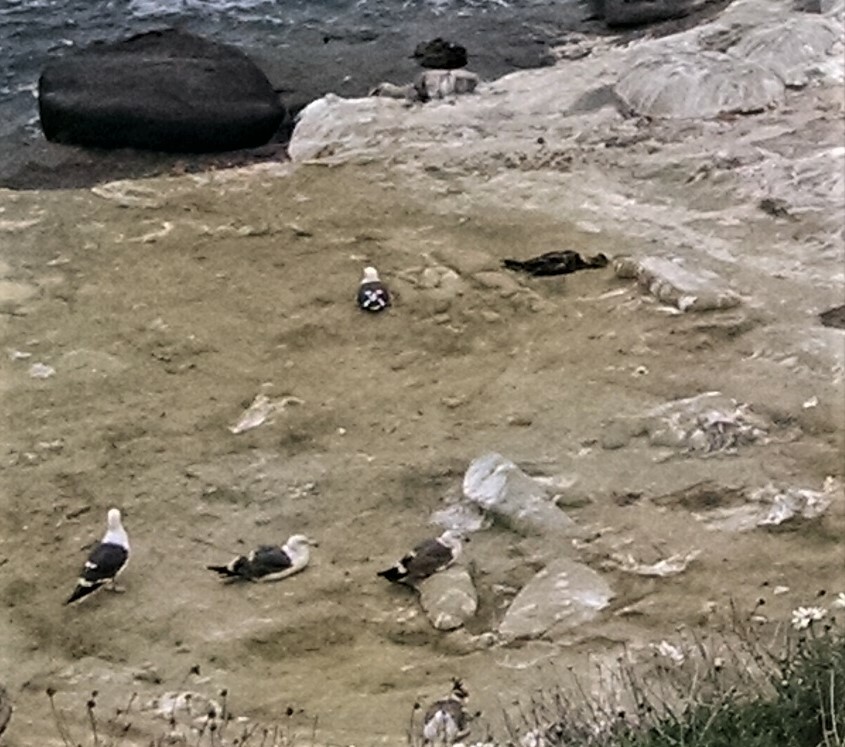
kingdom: Animalia
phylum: Chordata
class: Aves
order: Charadriiformes
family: Laridae
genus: Larus
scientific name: Larus occidentalis
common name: Western gull
